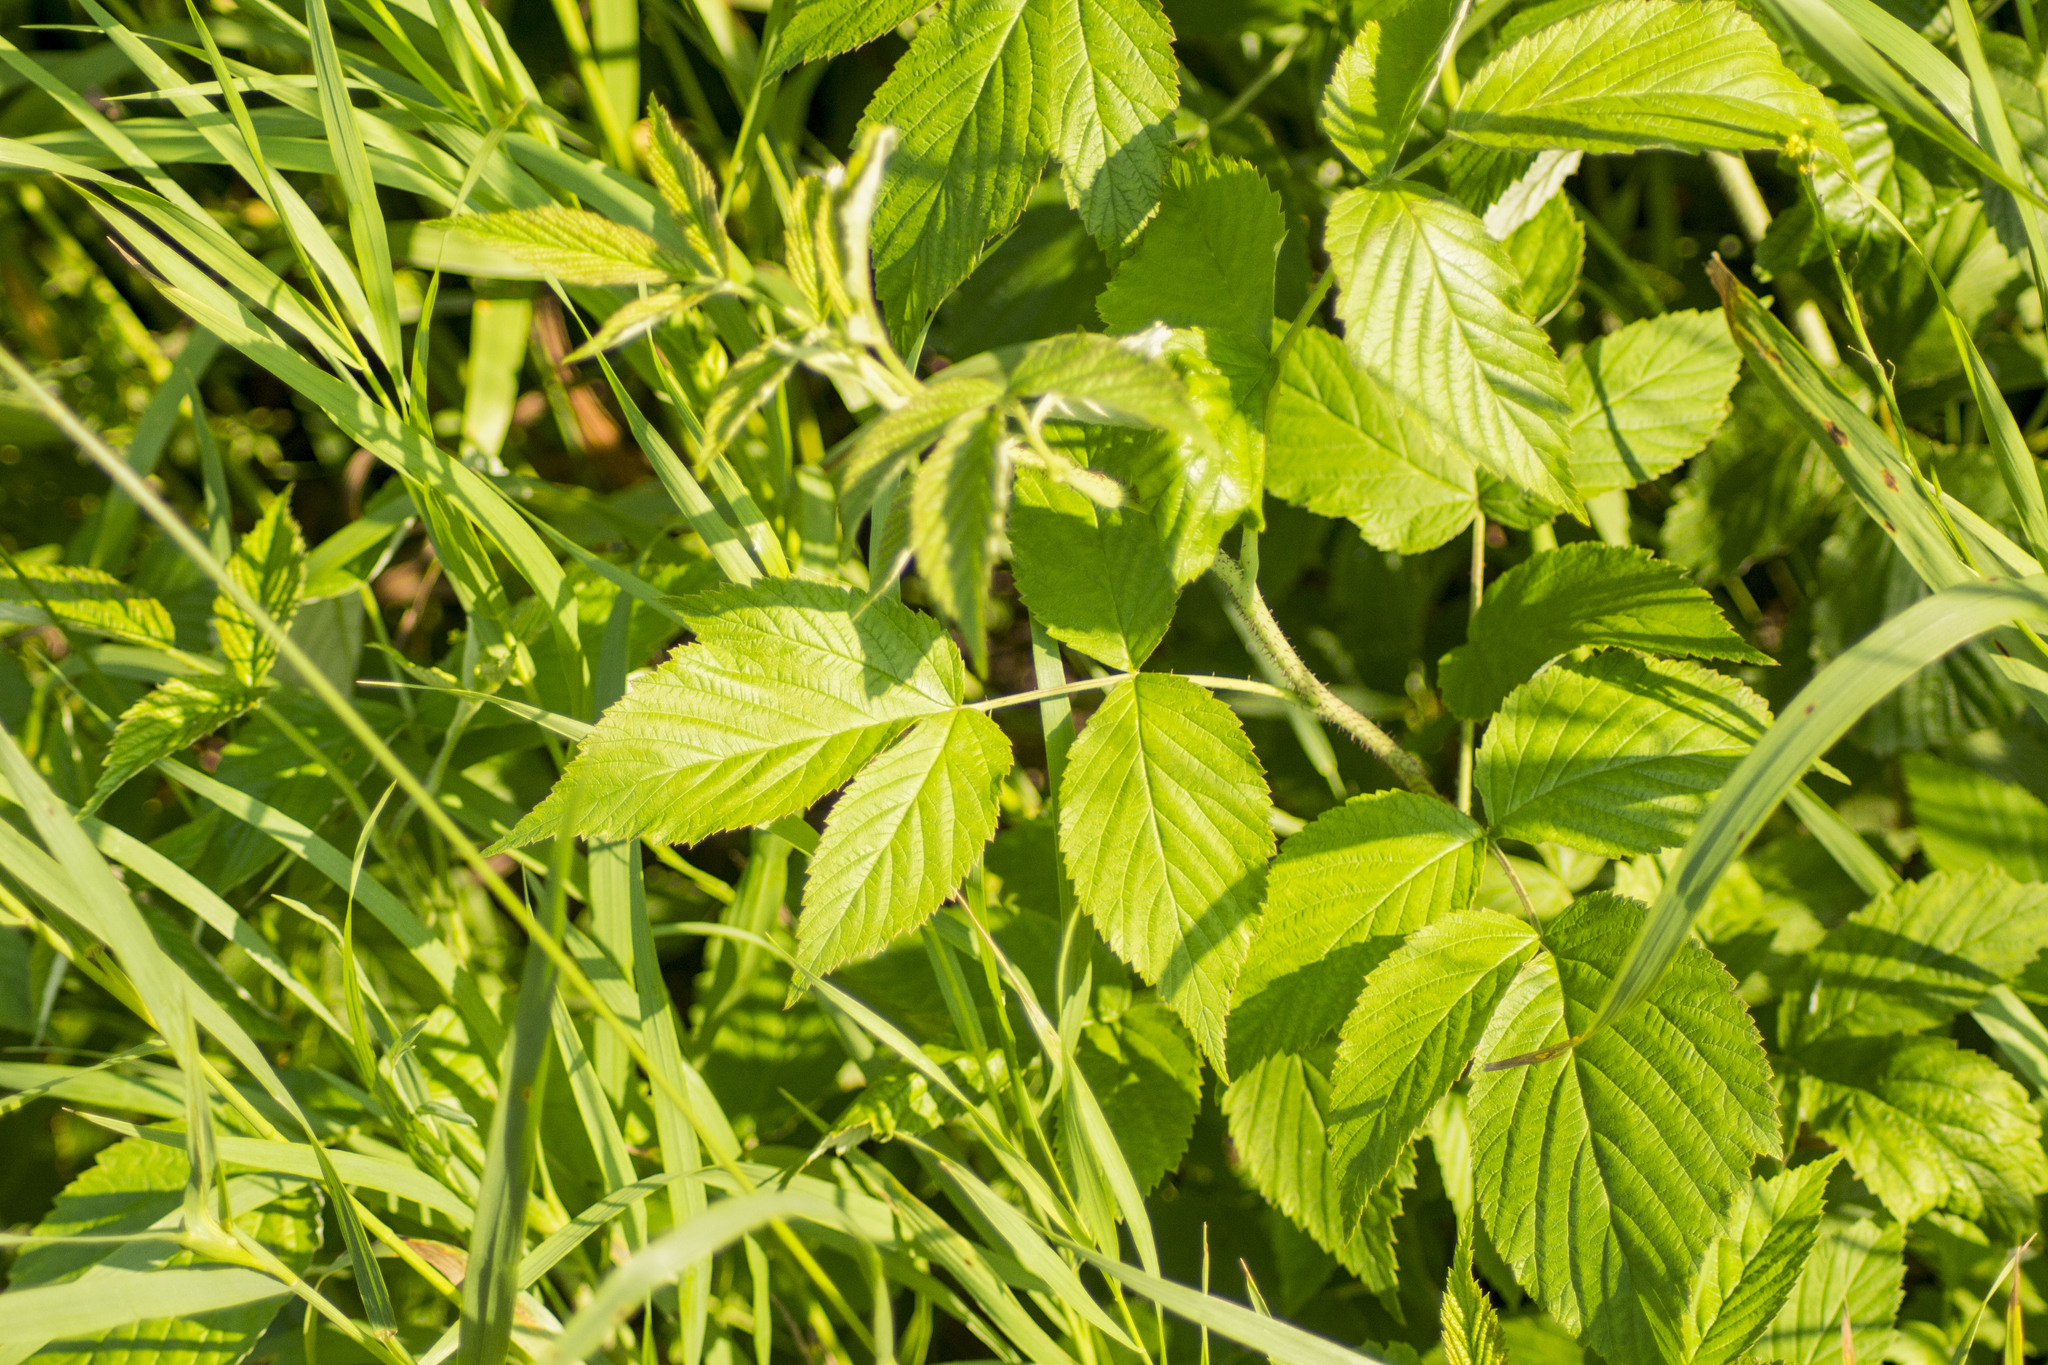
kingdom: Plantae
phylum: Tracheophyta
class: Magnoliopsida
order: Rosales
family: Rosaceae
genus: Rubus
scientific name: Rubus idaeus
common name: Raspberry
